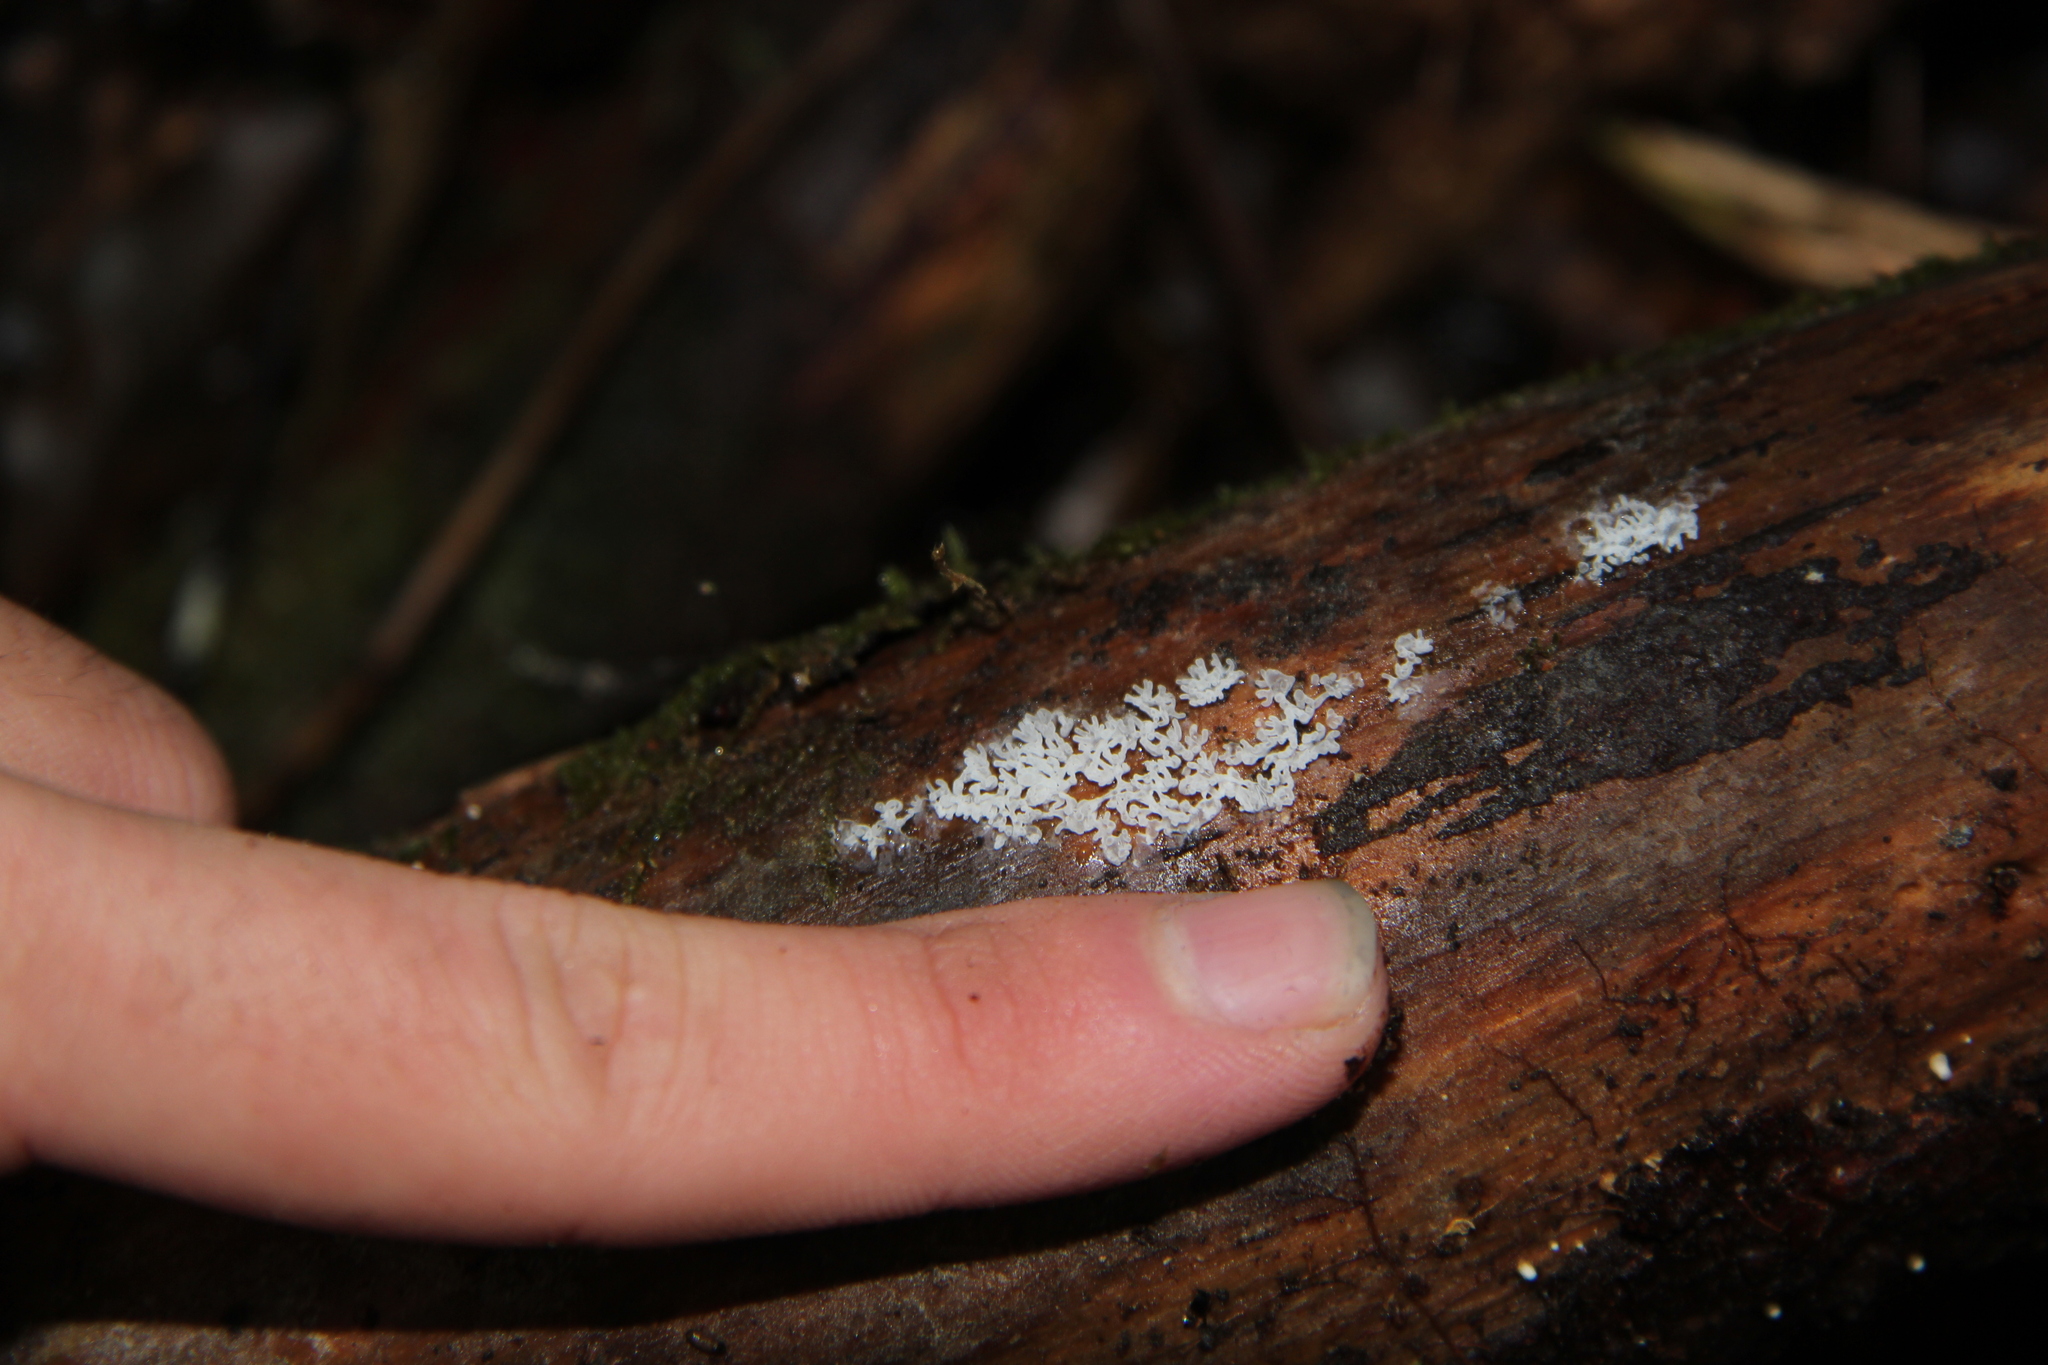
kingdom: Protozoa
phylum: Mycetozoa
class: Protosteliomycetes
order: Ceratiomyxales
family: Ceratiomyxaceae
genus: Ceratiomyxa
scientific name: Ceratiomyxa fruticulosa
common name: Honeycomb coral slime mold
